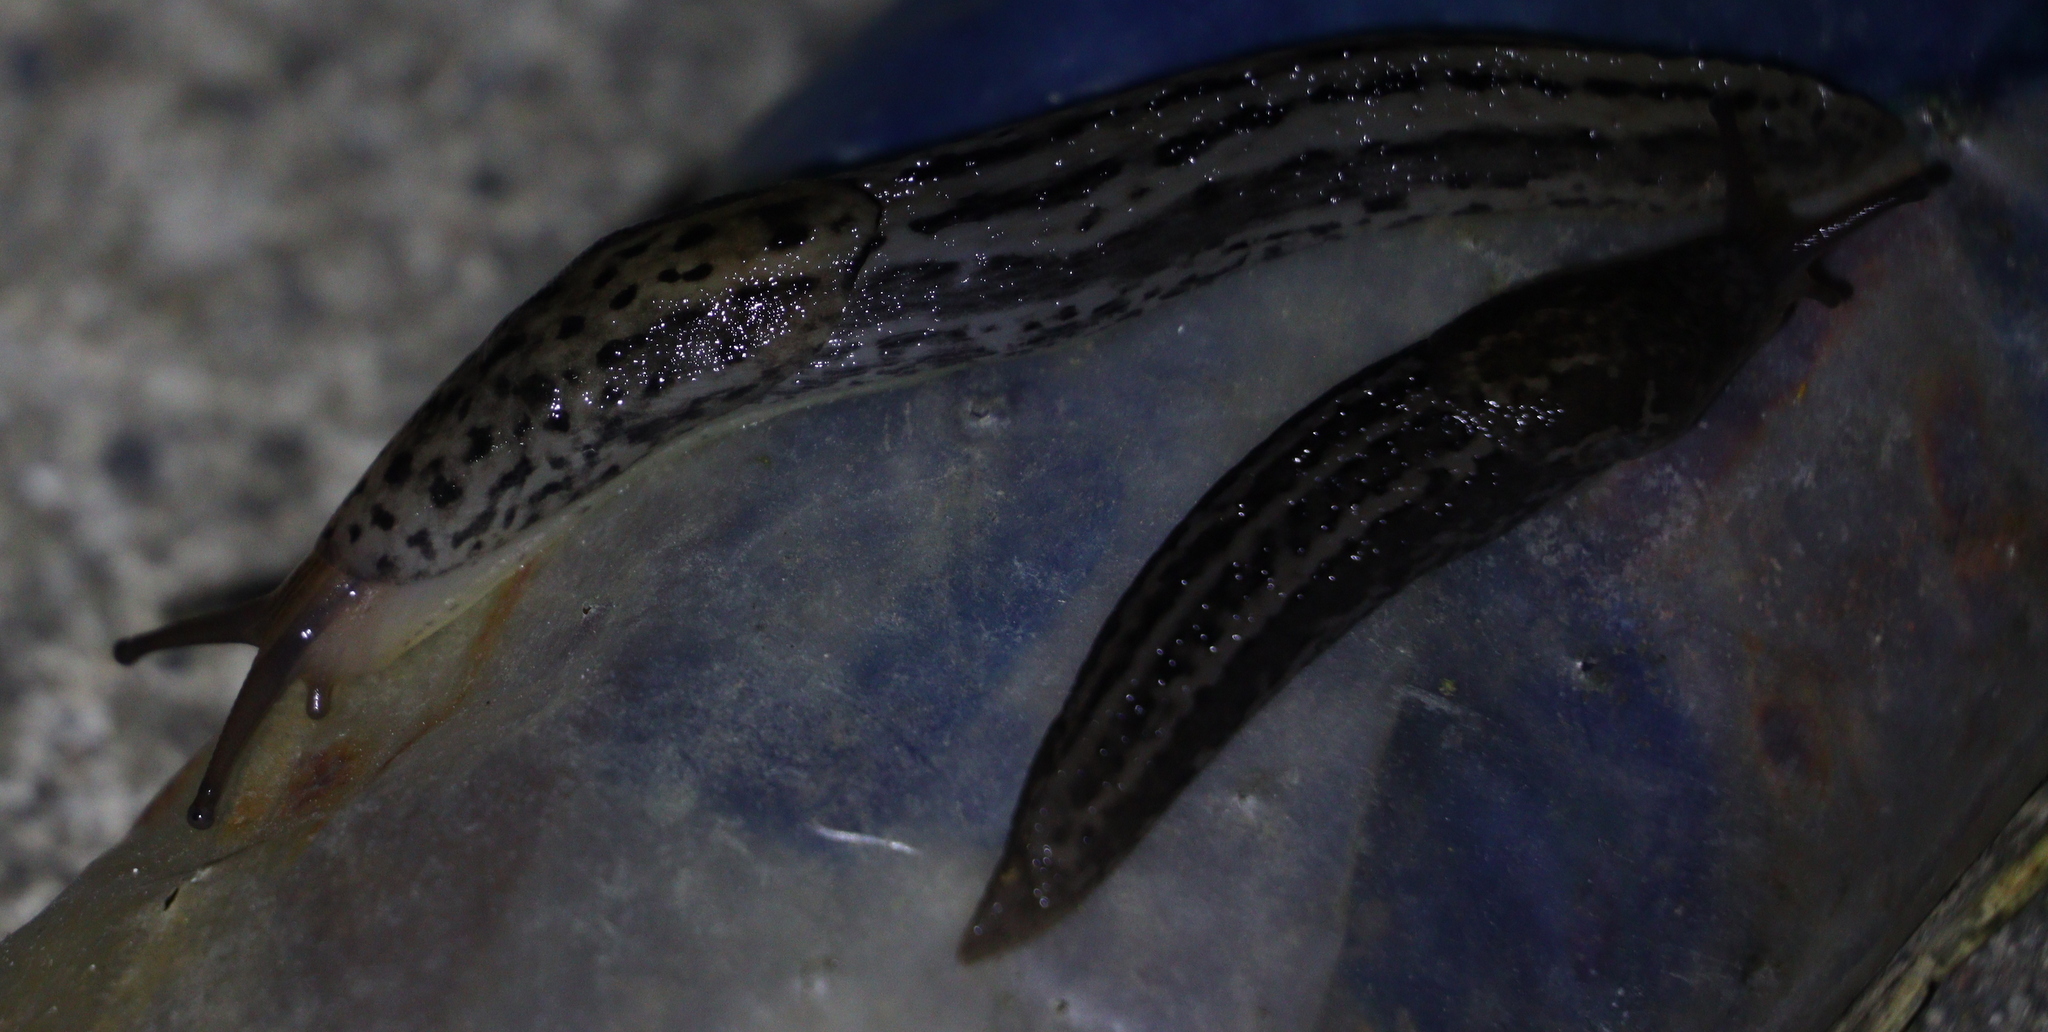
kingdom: Animalia
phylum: Mollusca
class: Gastropoda
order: Stylommatophora
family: Limacidae
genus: Limax
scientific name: Limax maximus
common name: Great grey slug
